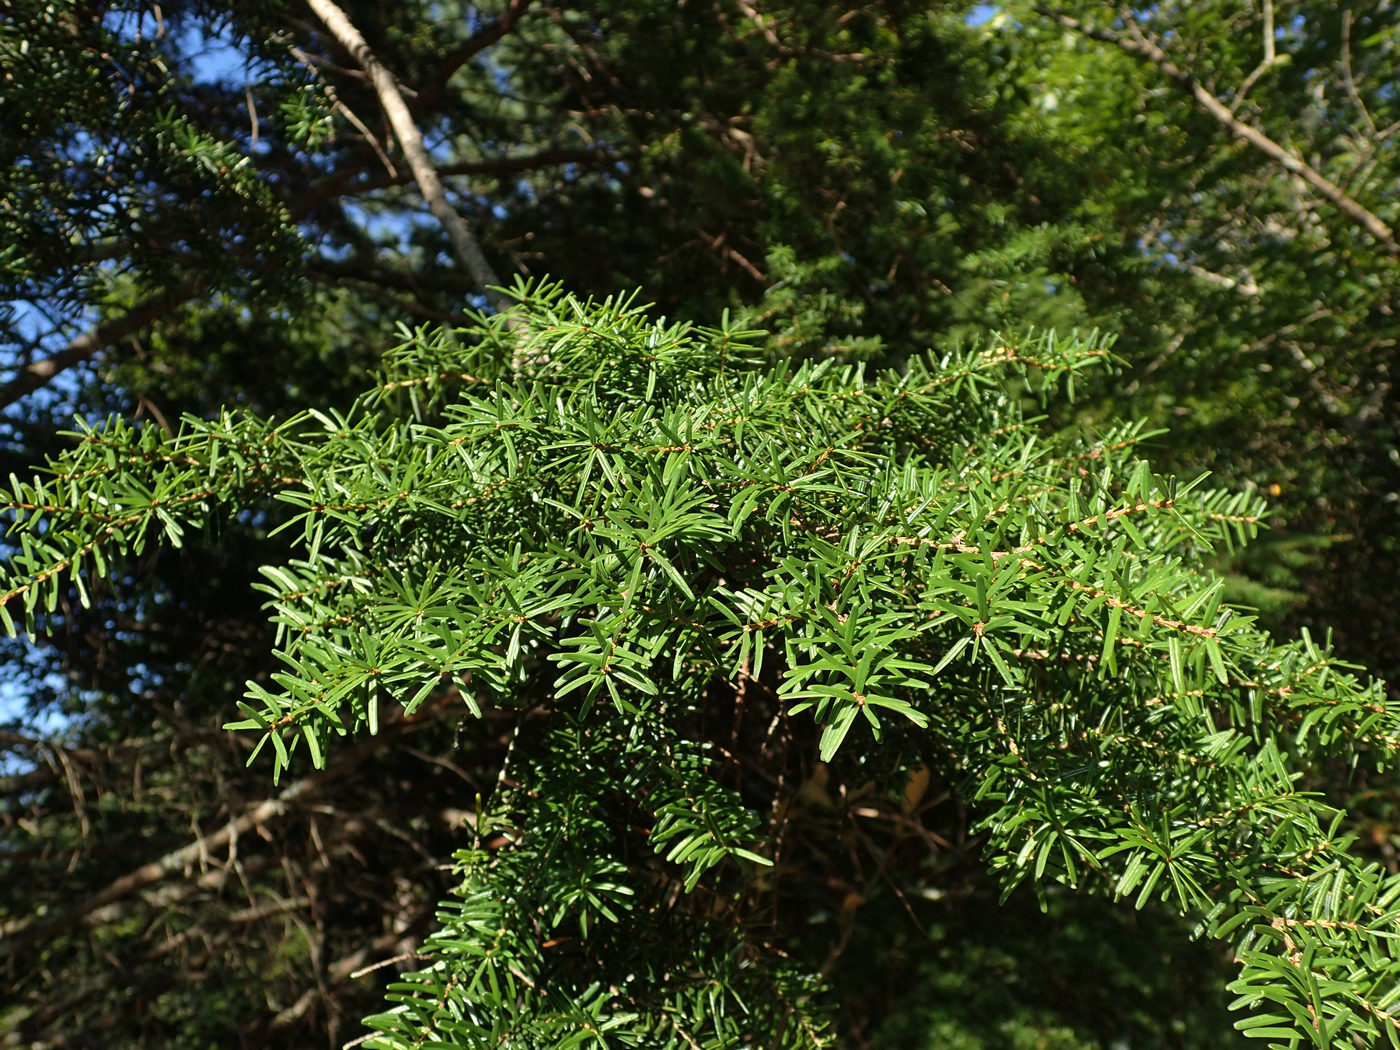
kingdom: Plantae
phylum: Tracheophyta
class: Pinopsida
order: Pinales
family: Pinaceae
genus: Tsuga
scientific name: Tsuga caroliniana
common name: Carolina hemlock
